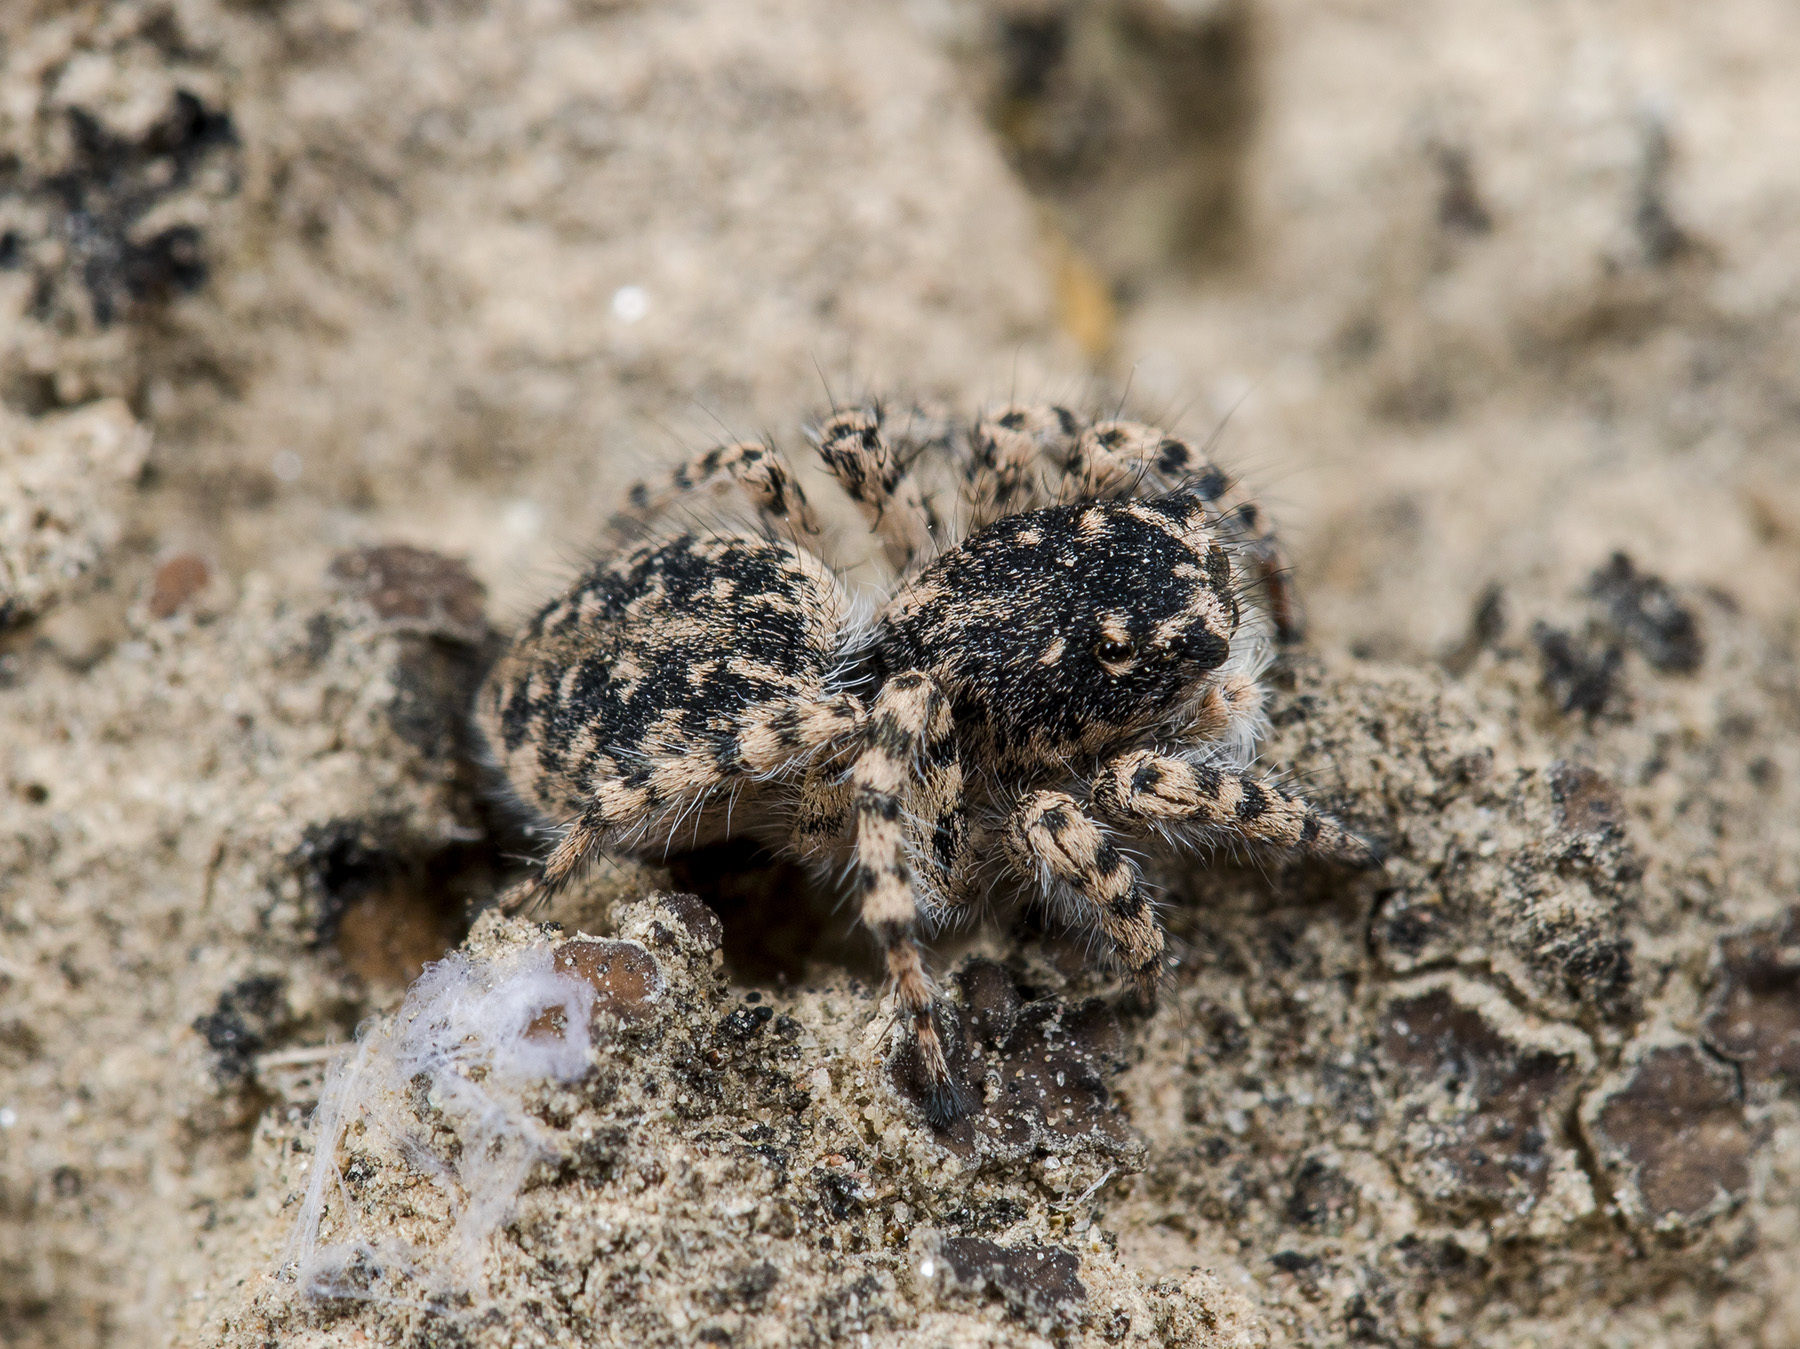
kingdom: Animalia
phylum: Arthropoda
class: Arachnida
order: Araneae
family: Salticidae
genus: Aelurillus
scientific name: Aelurillus dubatolovi
